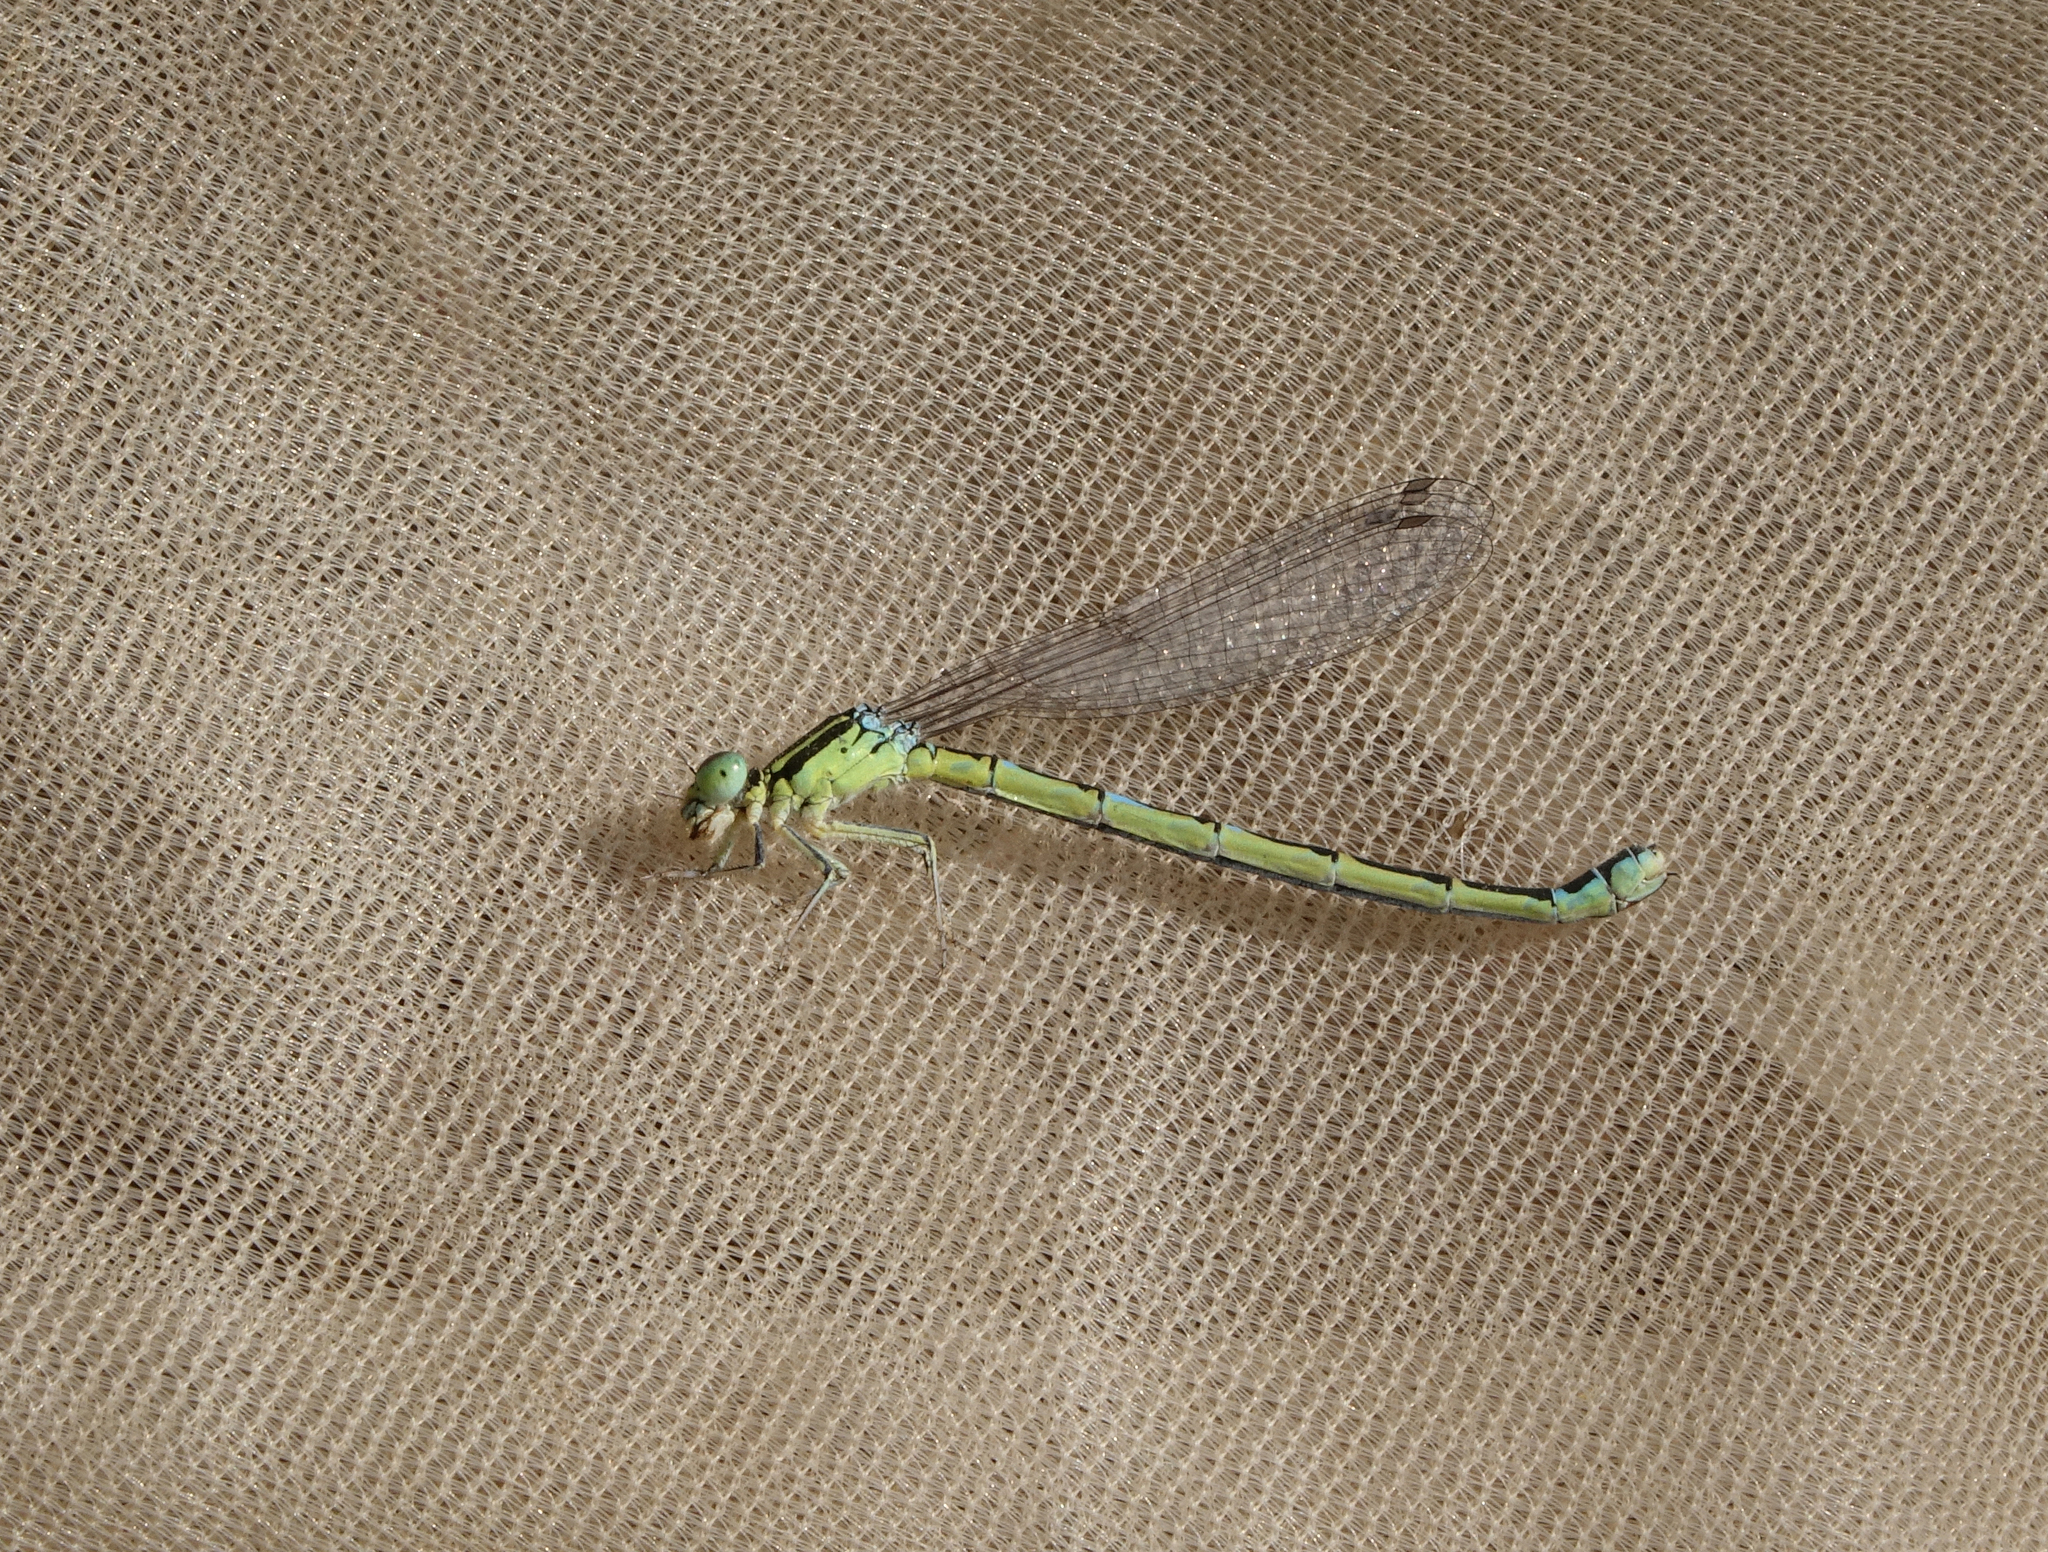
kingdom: Animalia
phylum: Arthropoda
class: Insecta
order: Odonata
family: Coenagrionidae
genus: Coenagrion
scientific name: Coenagrion scitulum
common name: Dainty bluet
